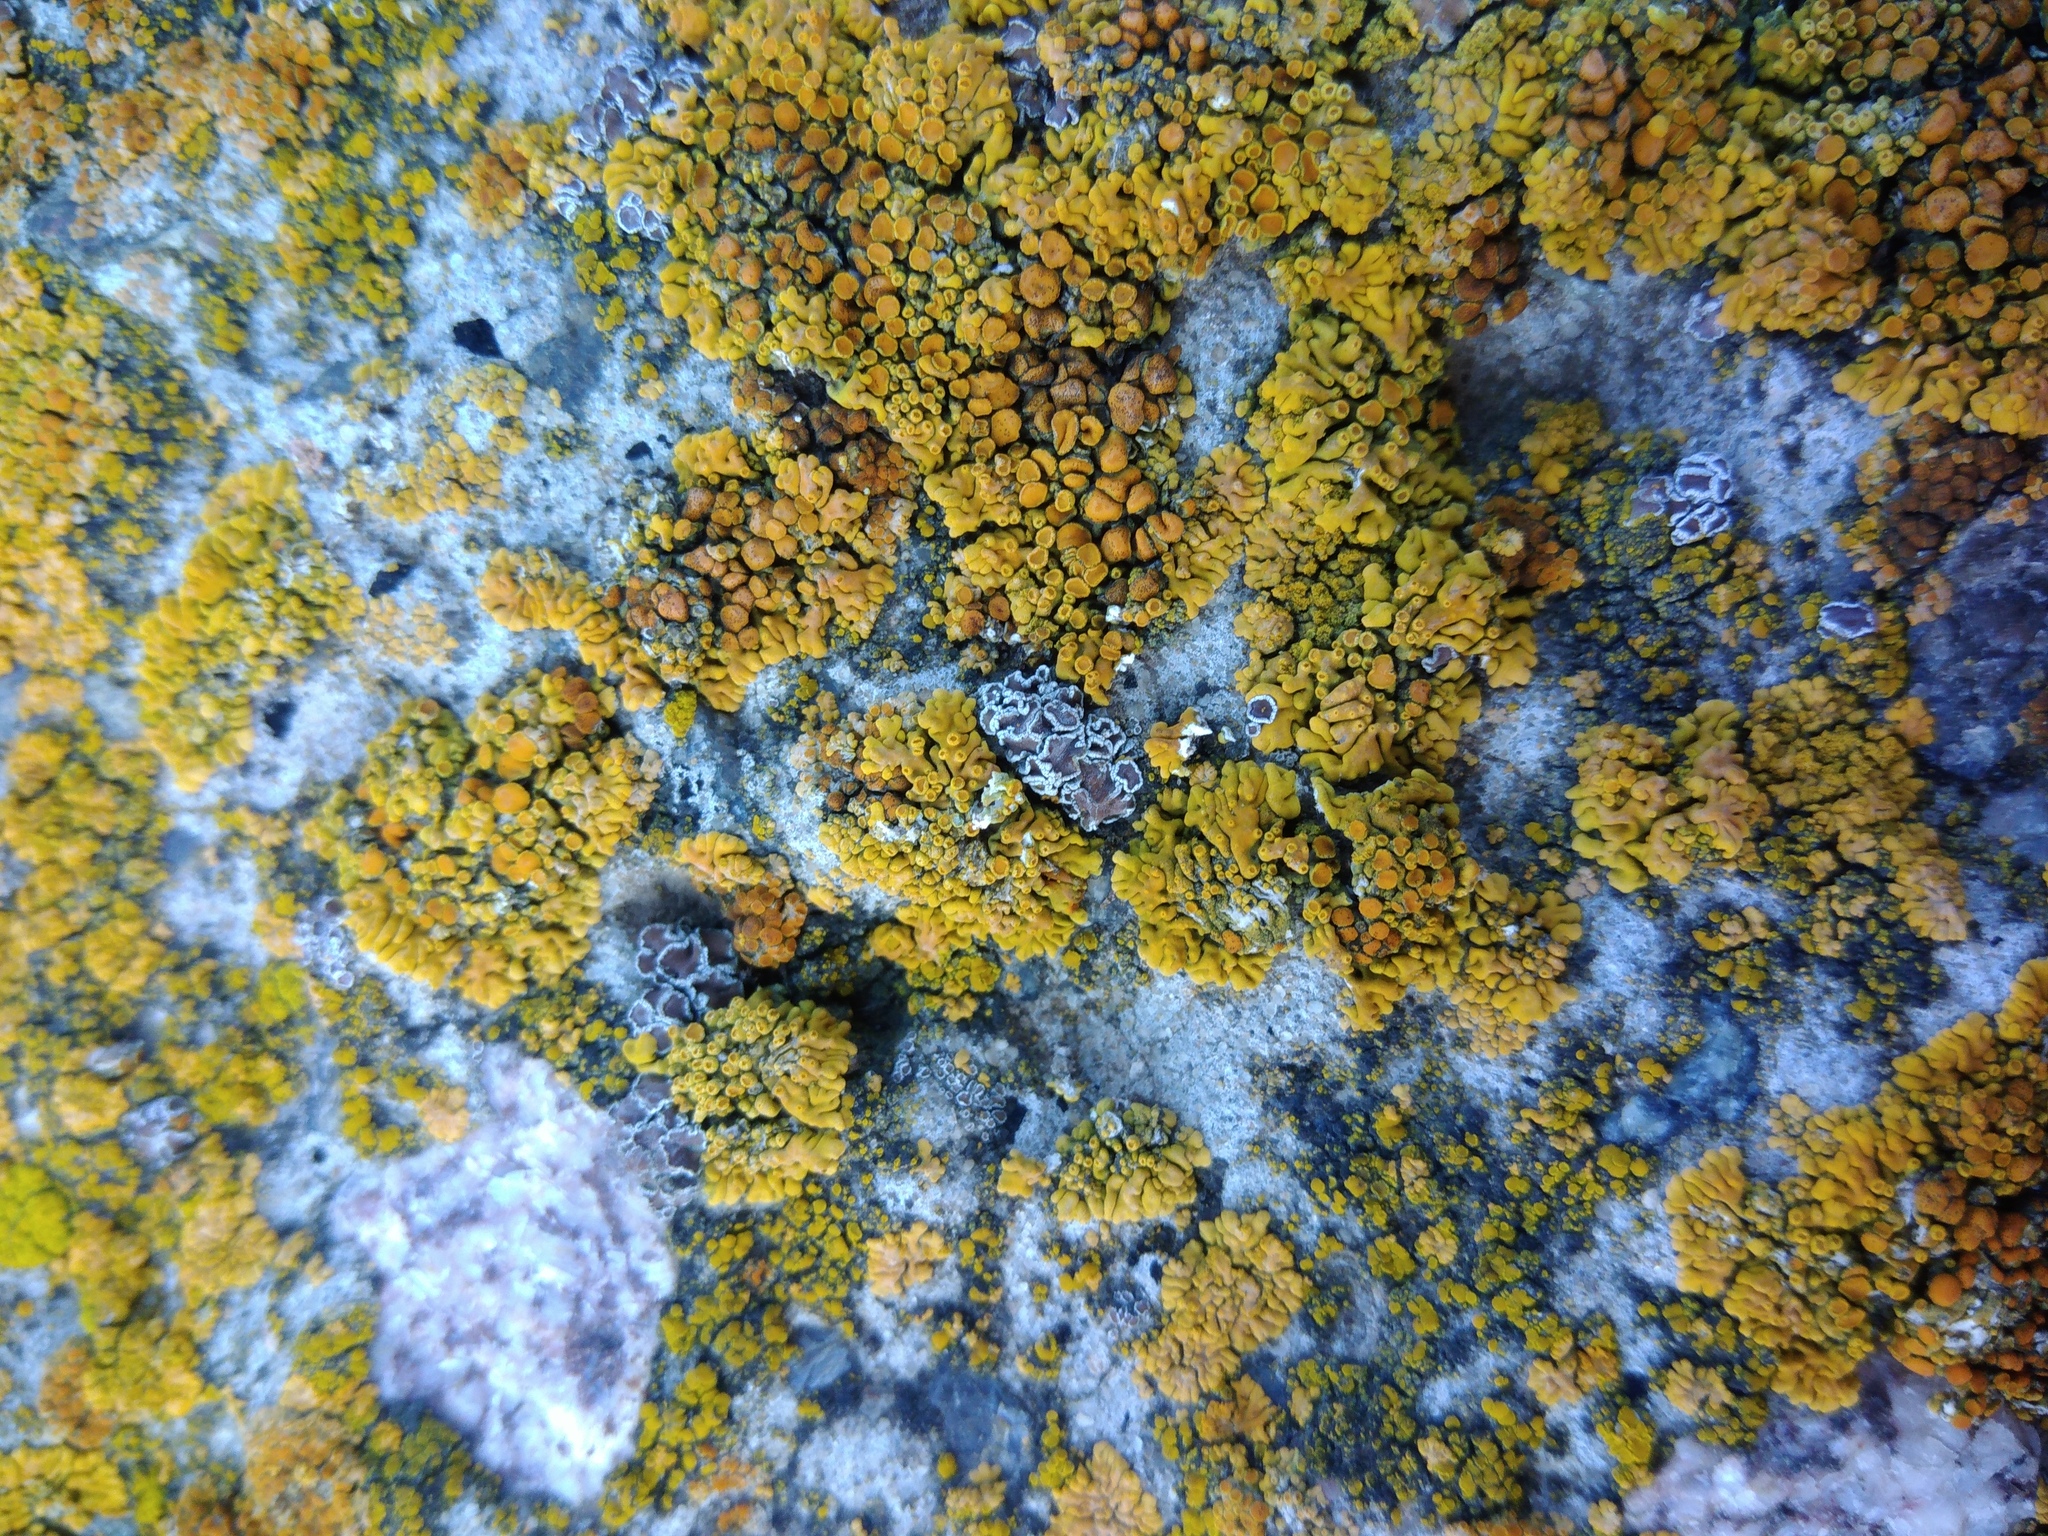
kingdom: Fungi
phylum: Ascomycota
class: Lecanoromycetes
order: Lecanorales
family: Lecanoraceae
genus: Polyozosia
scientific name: Polyozosia albescens
